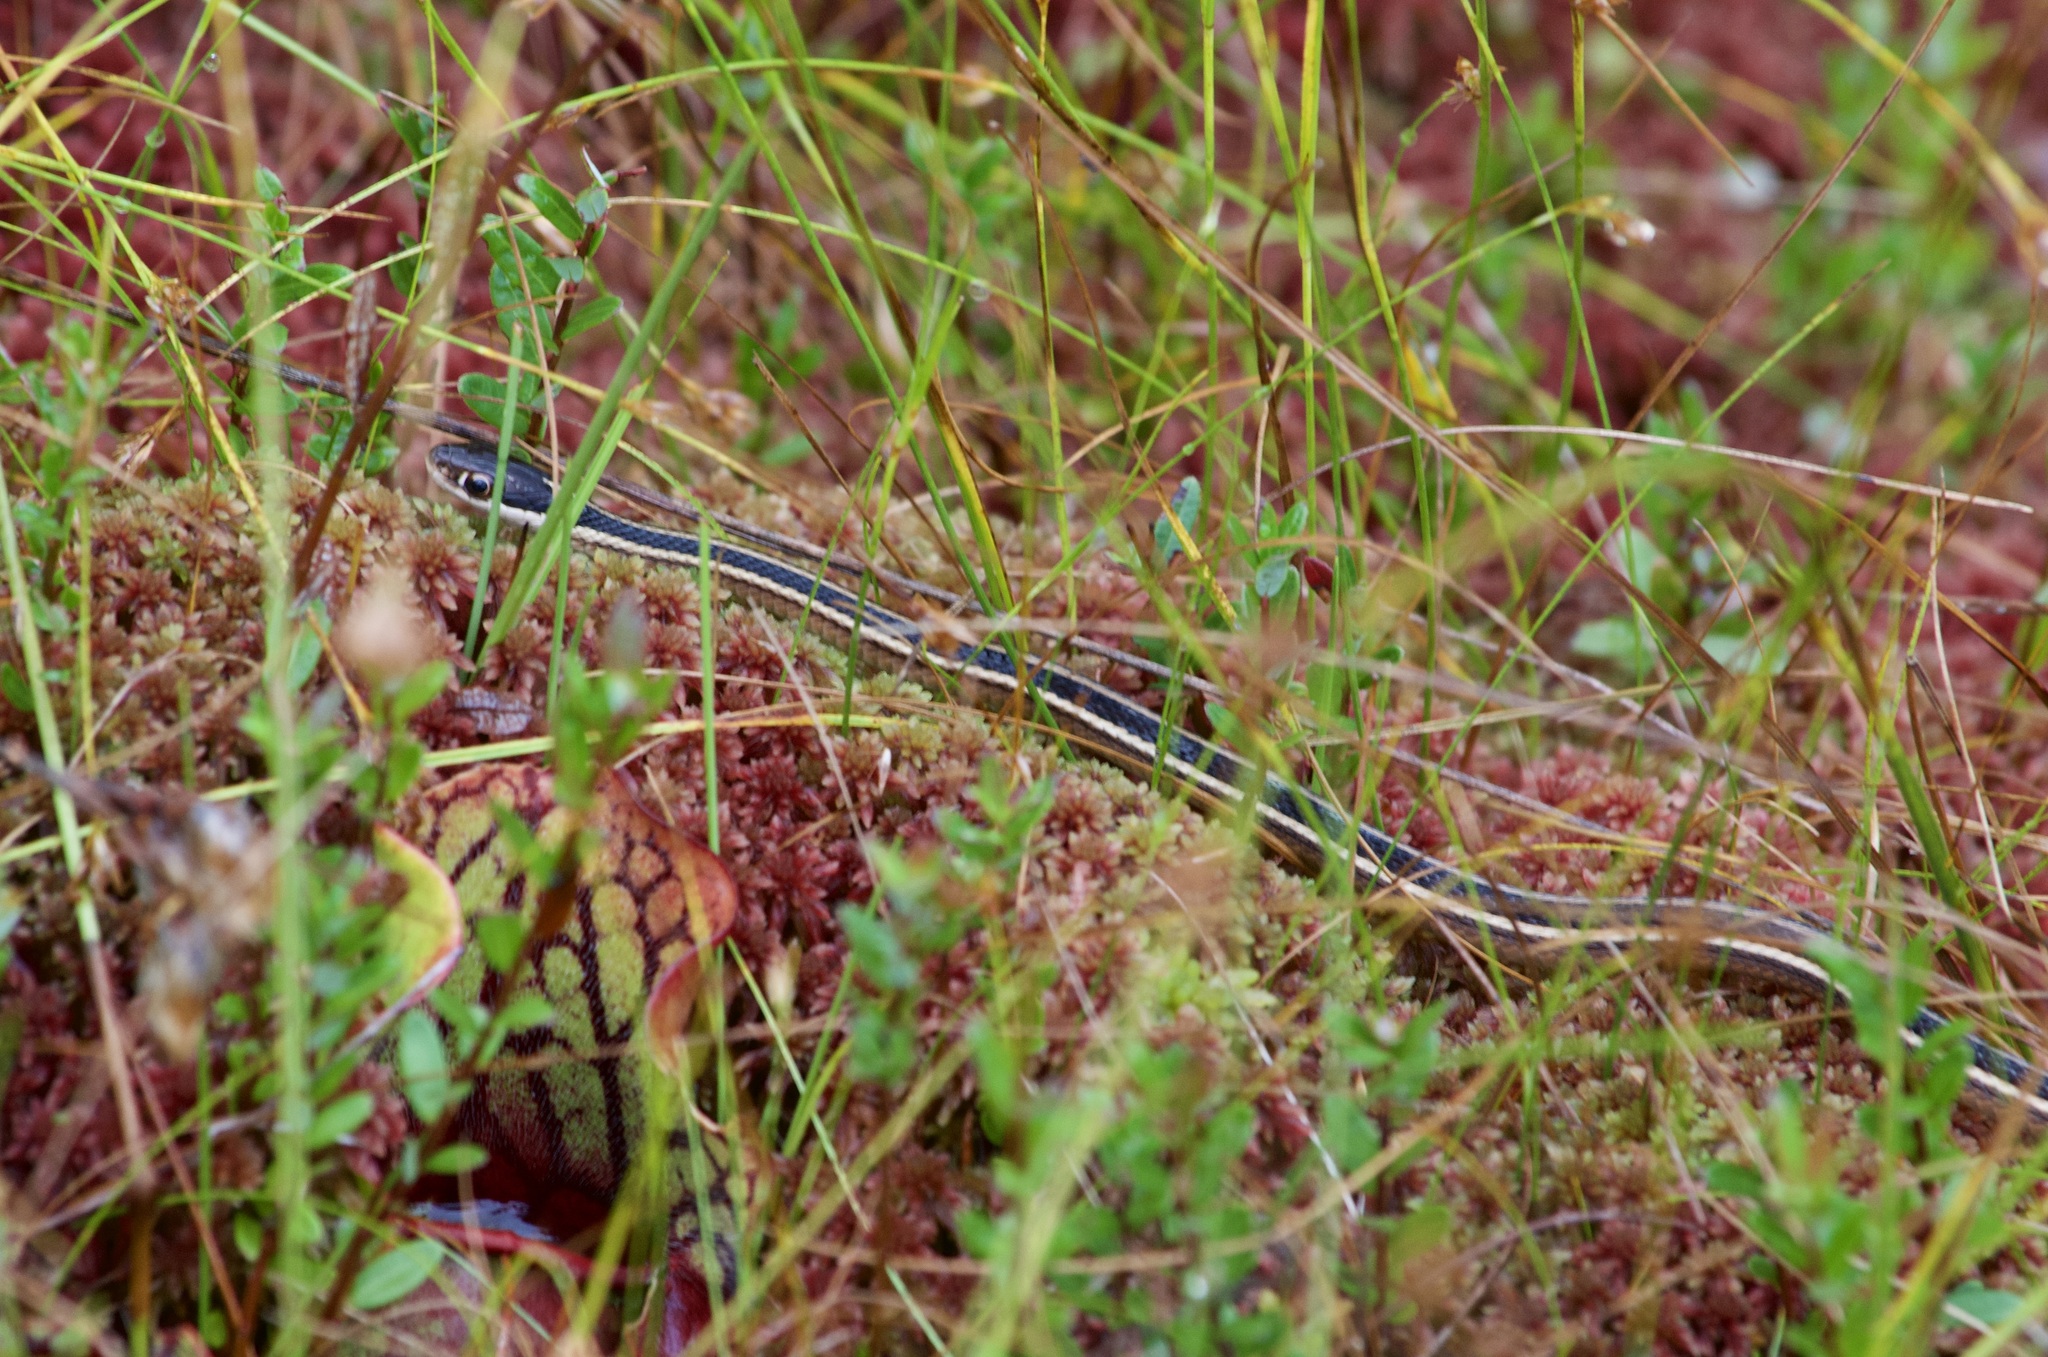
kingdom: Animalia
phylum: Chordata
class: Squamata
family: Colubridae
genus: Thamnophis
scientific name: Thamnophis saurita
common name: Eastern ribbonsnake
